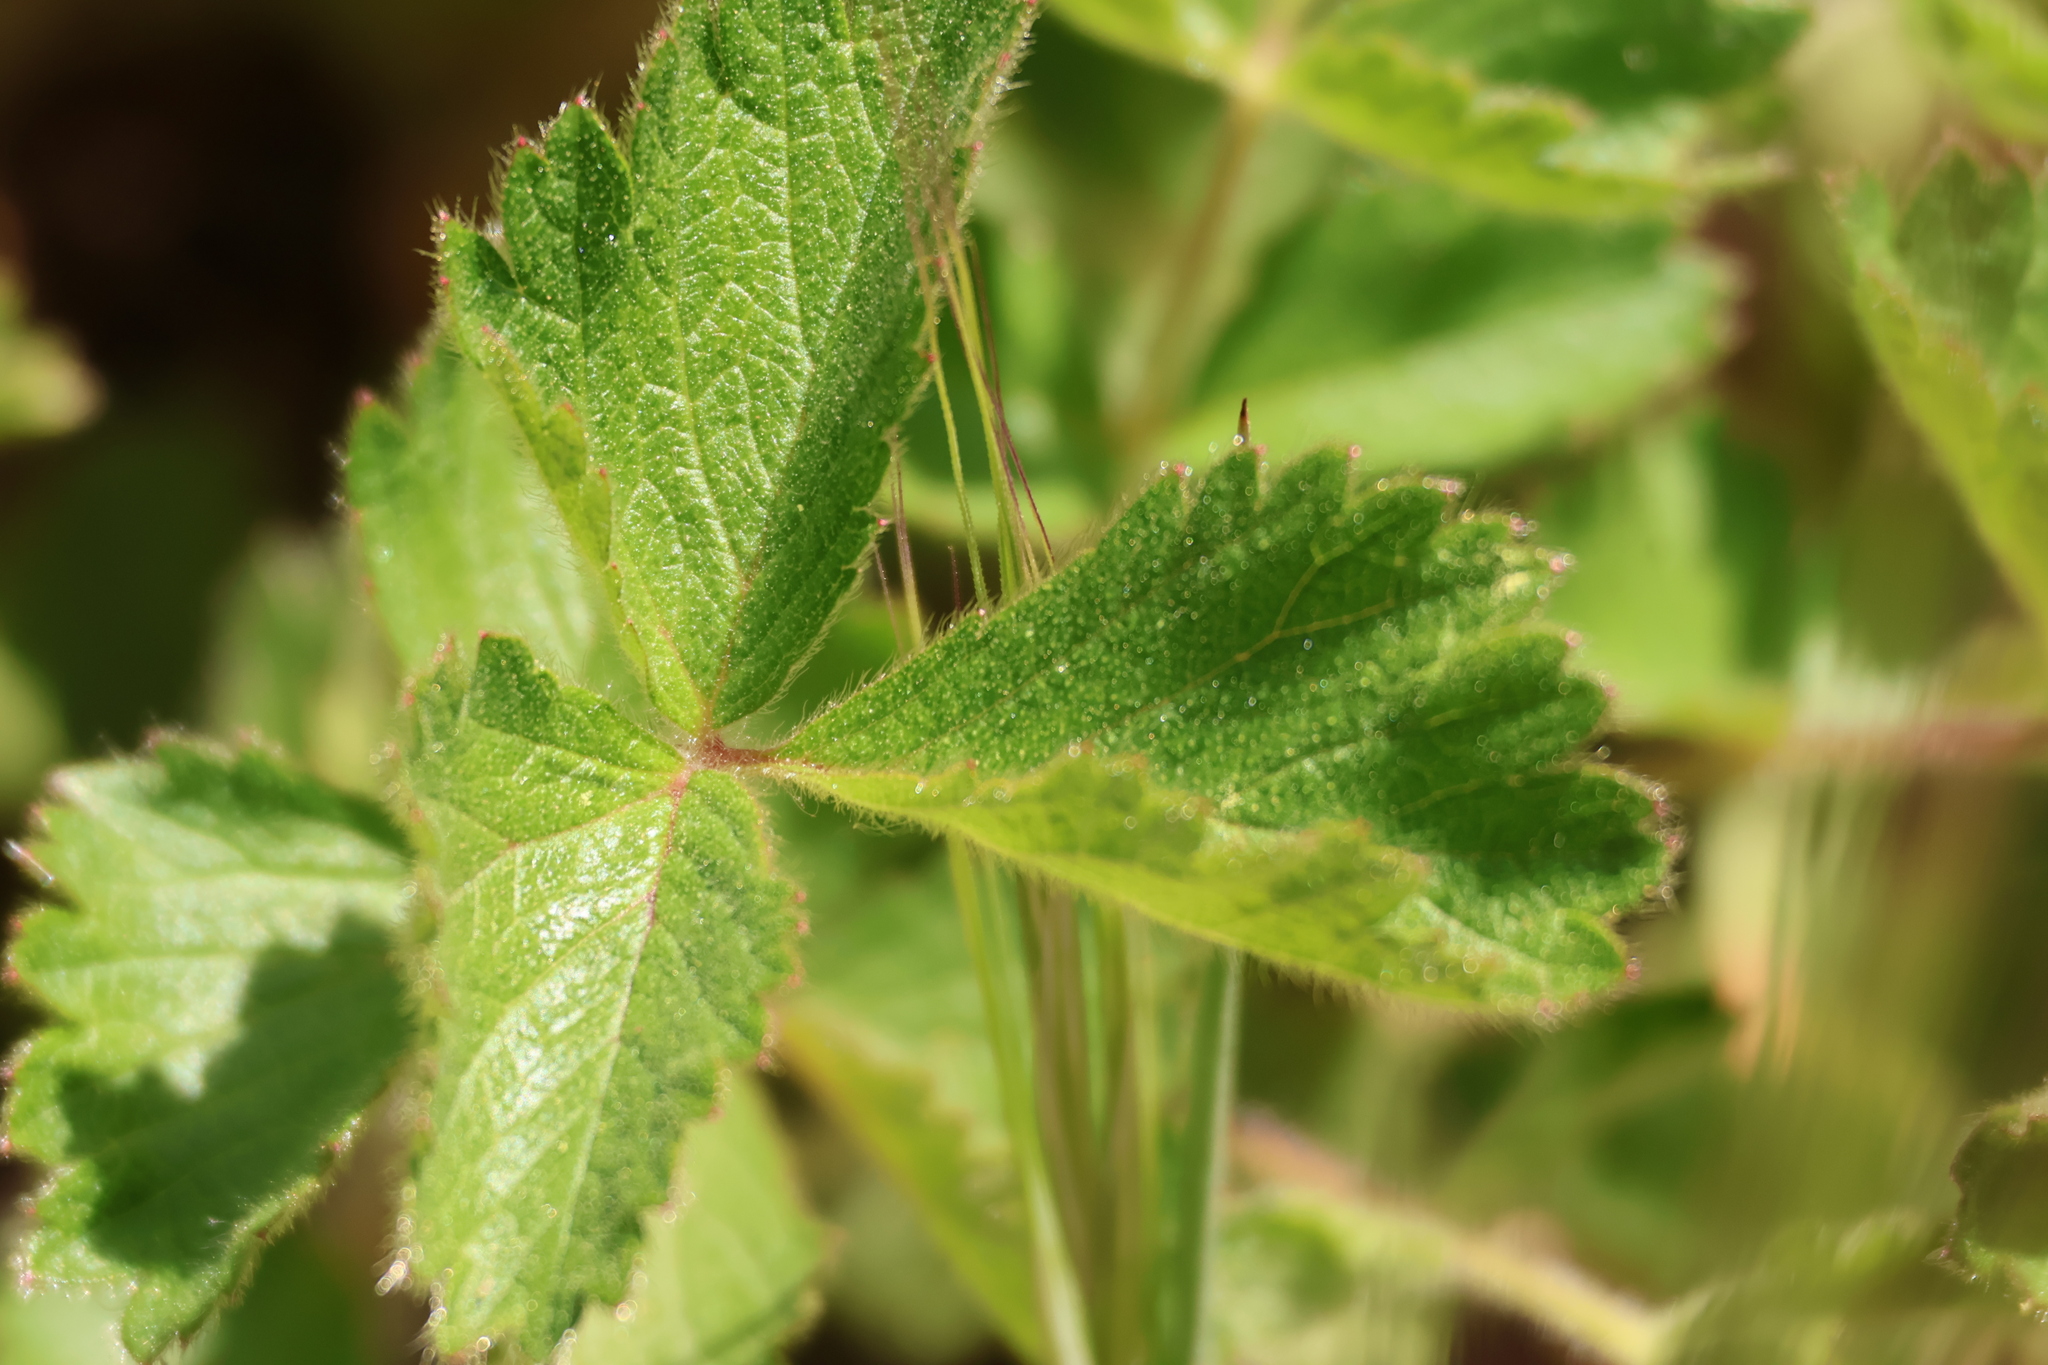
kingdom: Plantae
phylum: Tracheophyta
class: Magnoliopsida
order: Rosales
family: Rosaceae
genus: Drymocallis
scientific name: Drymocallis glandulosa
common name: Sticky cinquefoil
